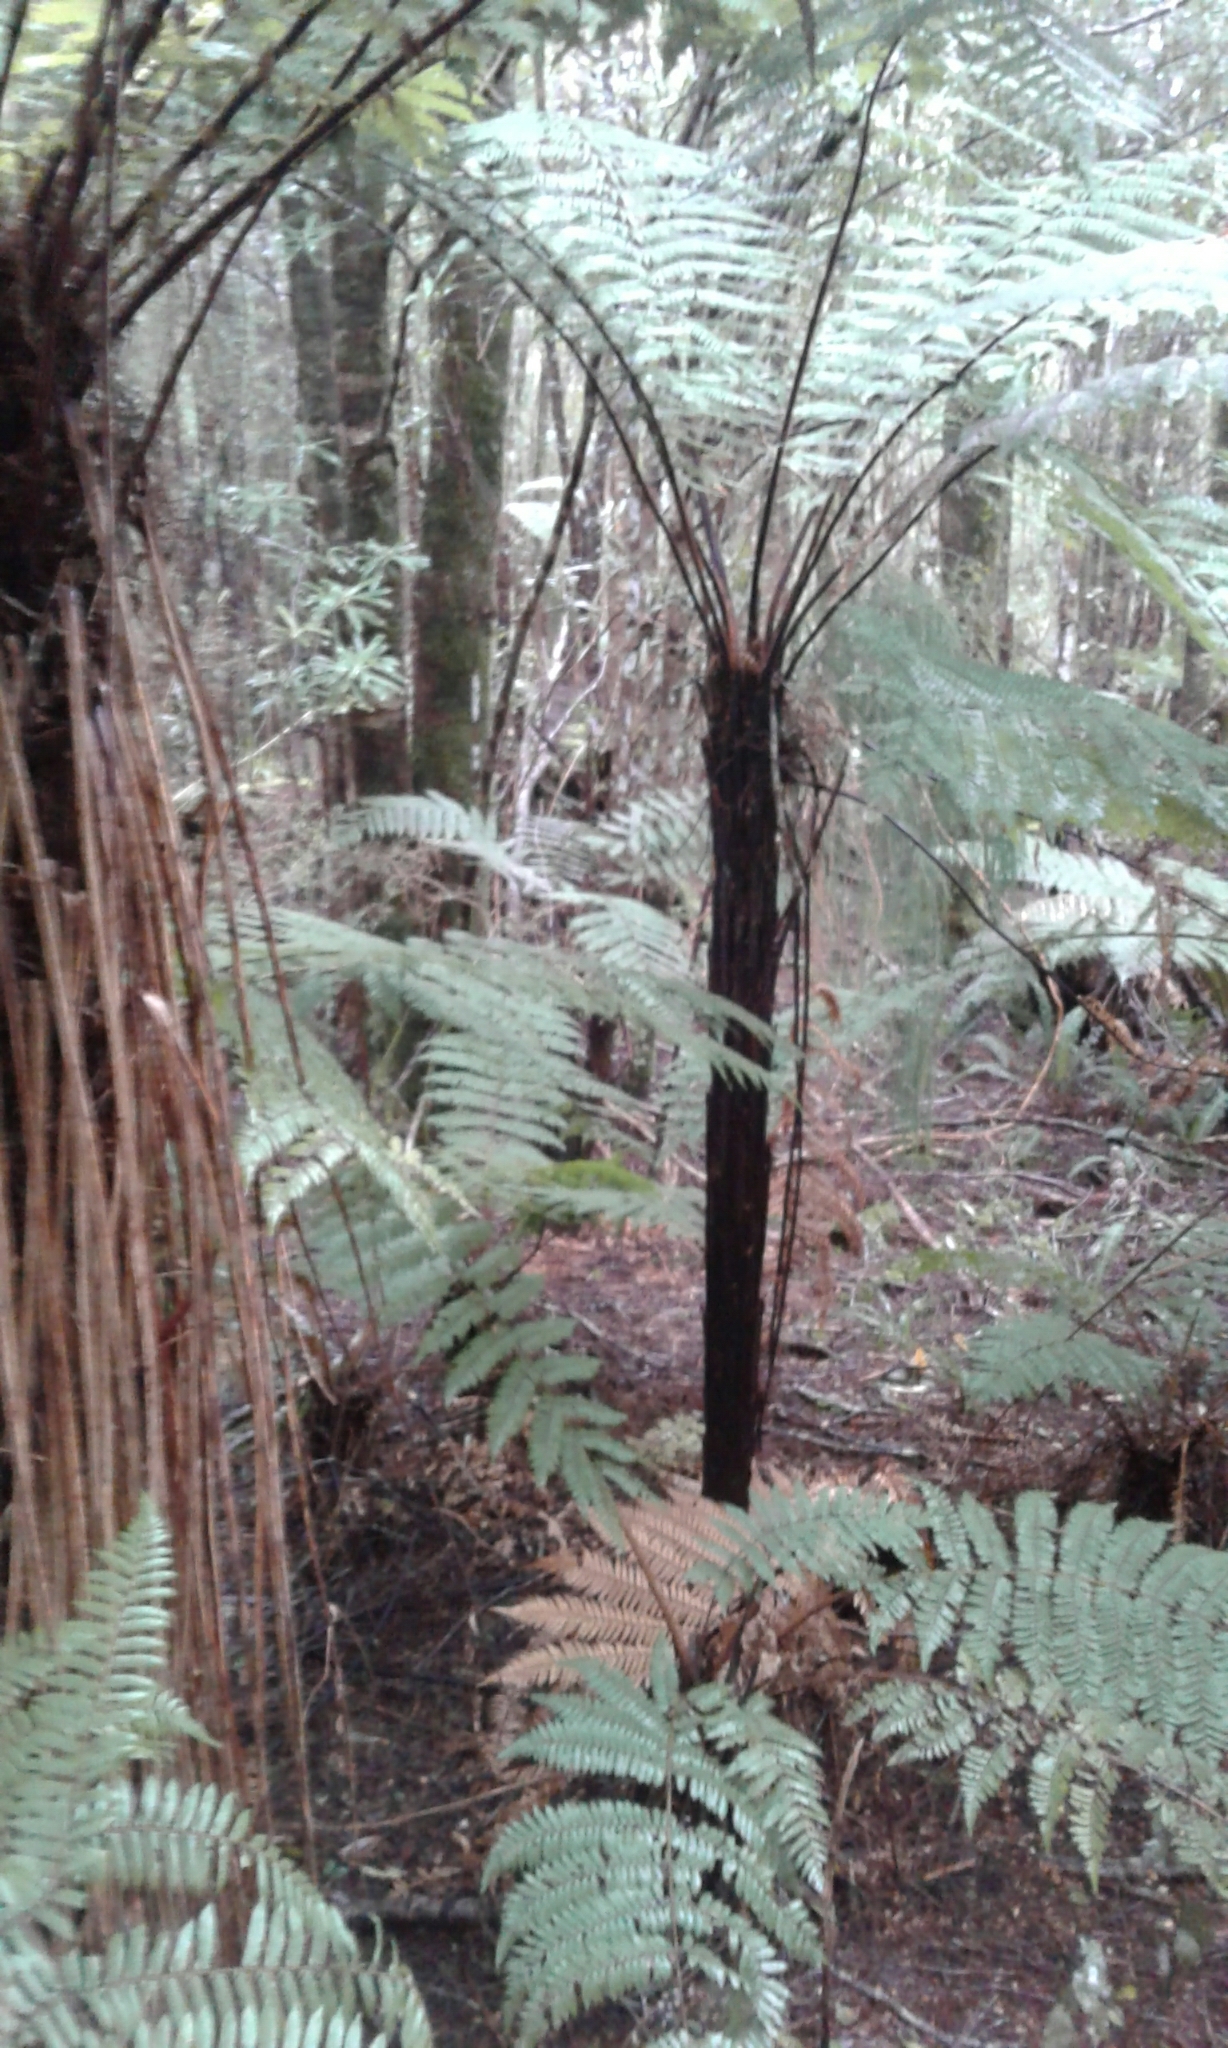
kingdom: Plantae
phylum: Tracheophyta
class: Polypodiopsida
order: Cyatheales
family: Dicksoniaceae
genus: Dicksonia
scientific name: Dicksonia squarrosa
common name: Hard treefern
